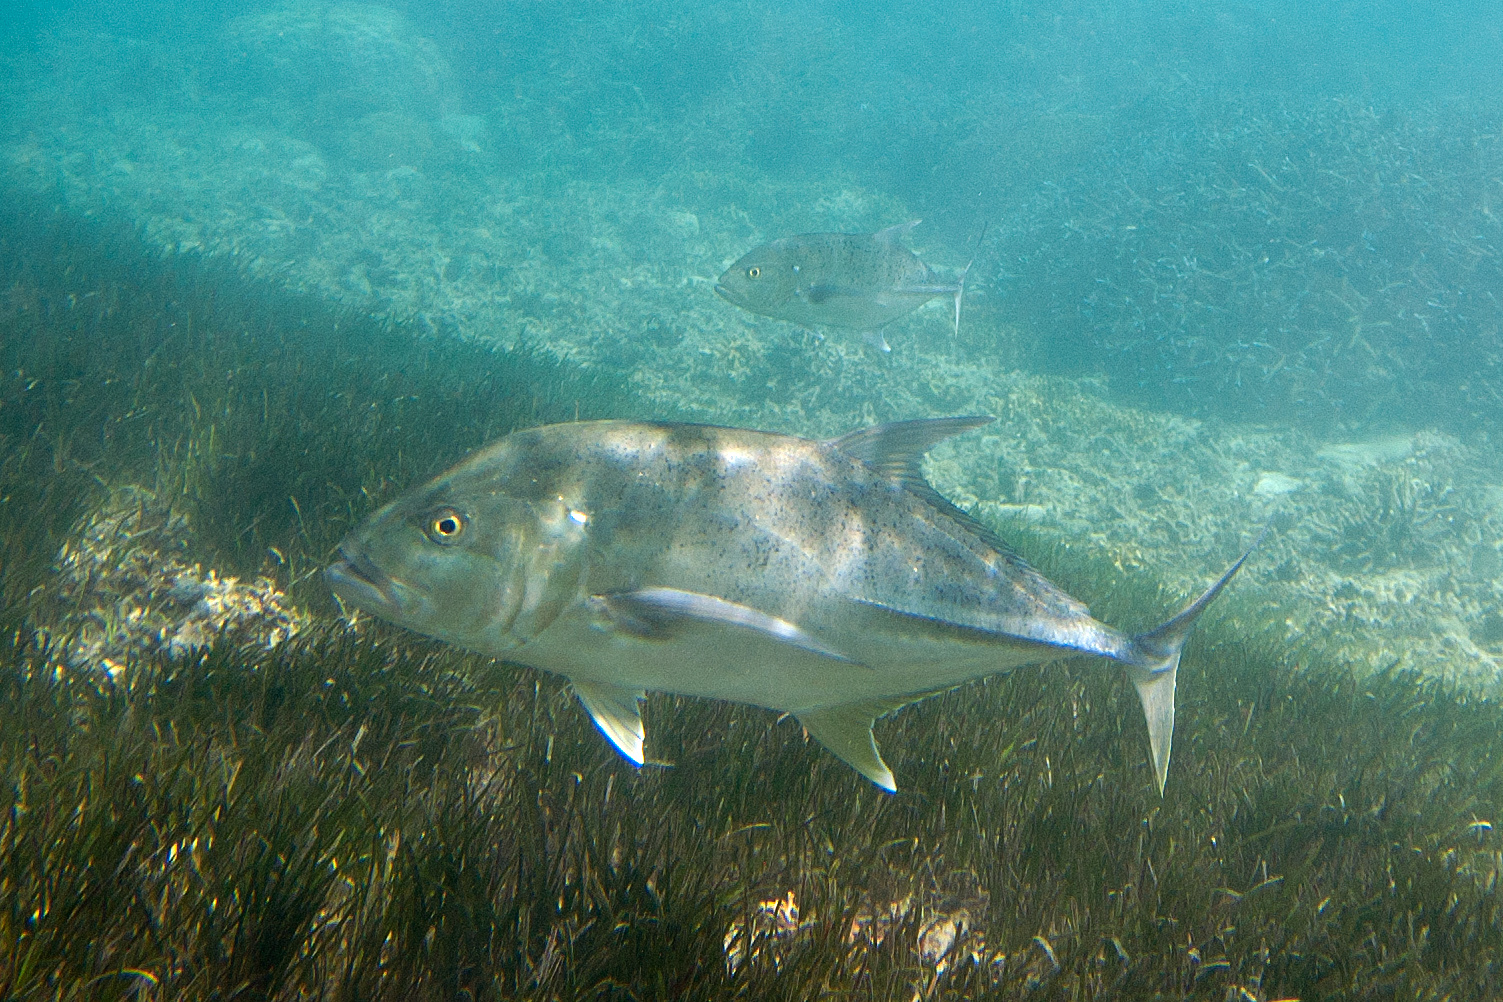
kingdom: Animalia
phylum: Chordata
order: Perciformes
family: Carangidae
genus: Caranx
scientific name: Caranx papuensis
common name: Brassy trevally
